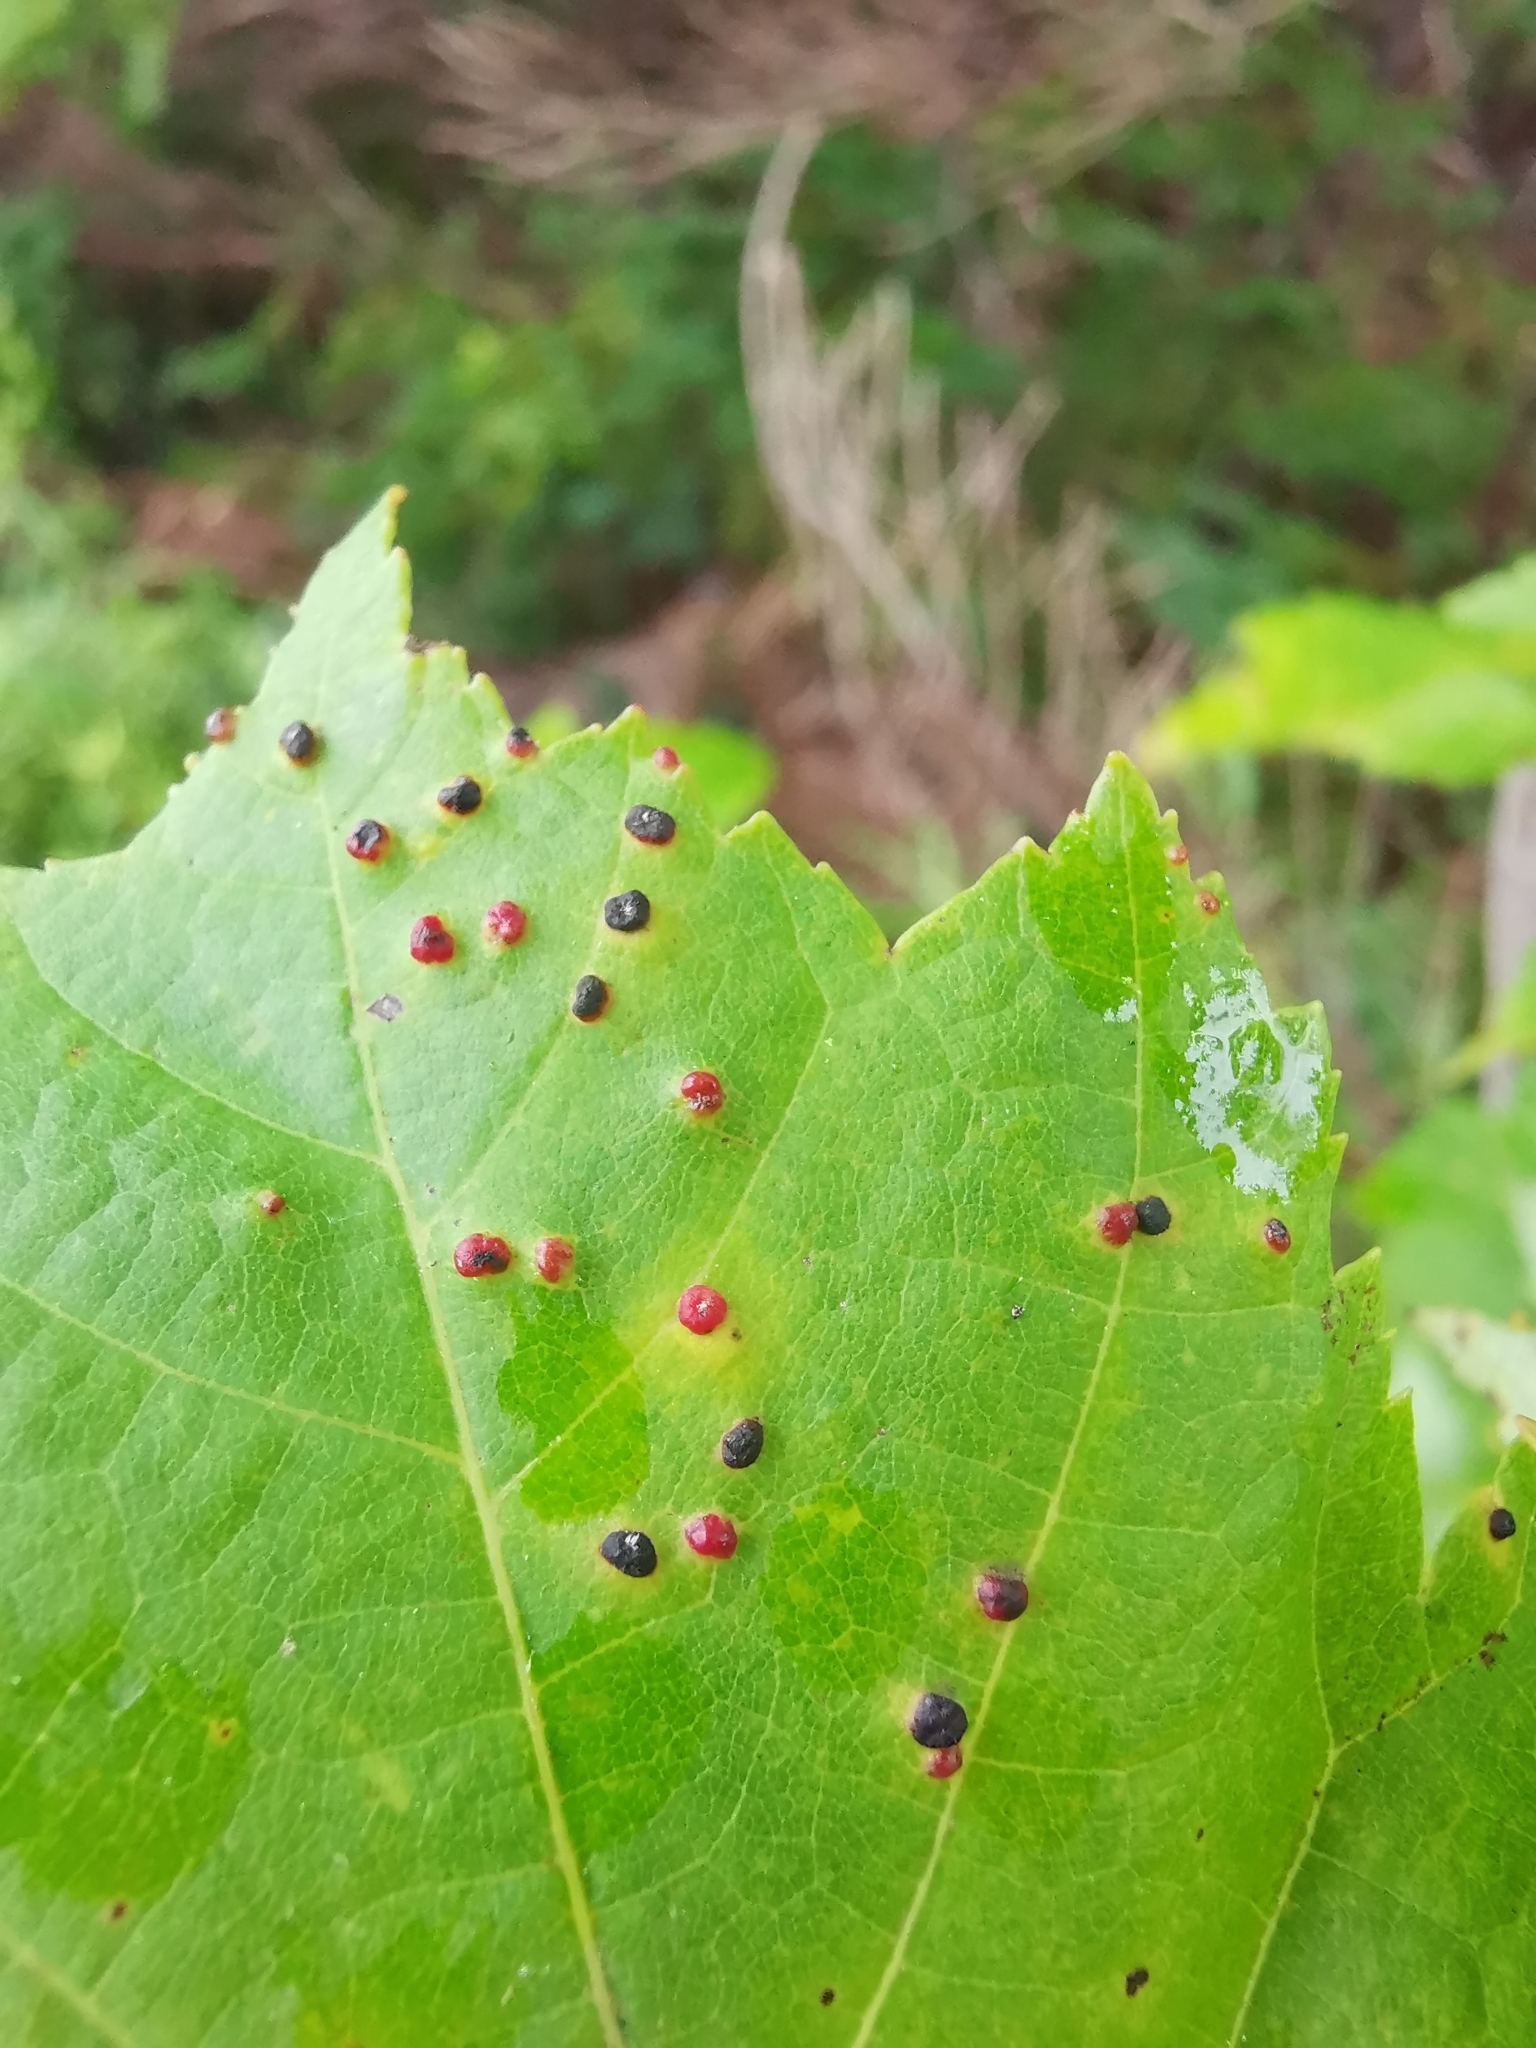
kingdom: Animalia
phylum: Arthropoda
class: Arachnida
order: Trombidiformes
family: Eriophyidae
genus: Vasates
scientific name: Vasates quadripedes
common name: Maple bladder gall mite
